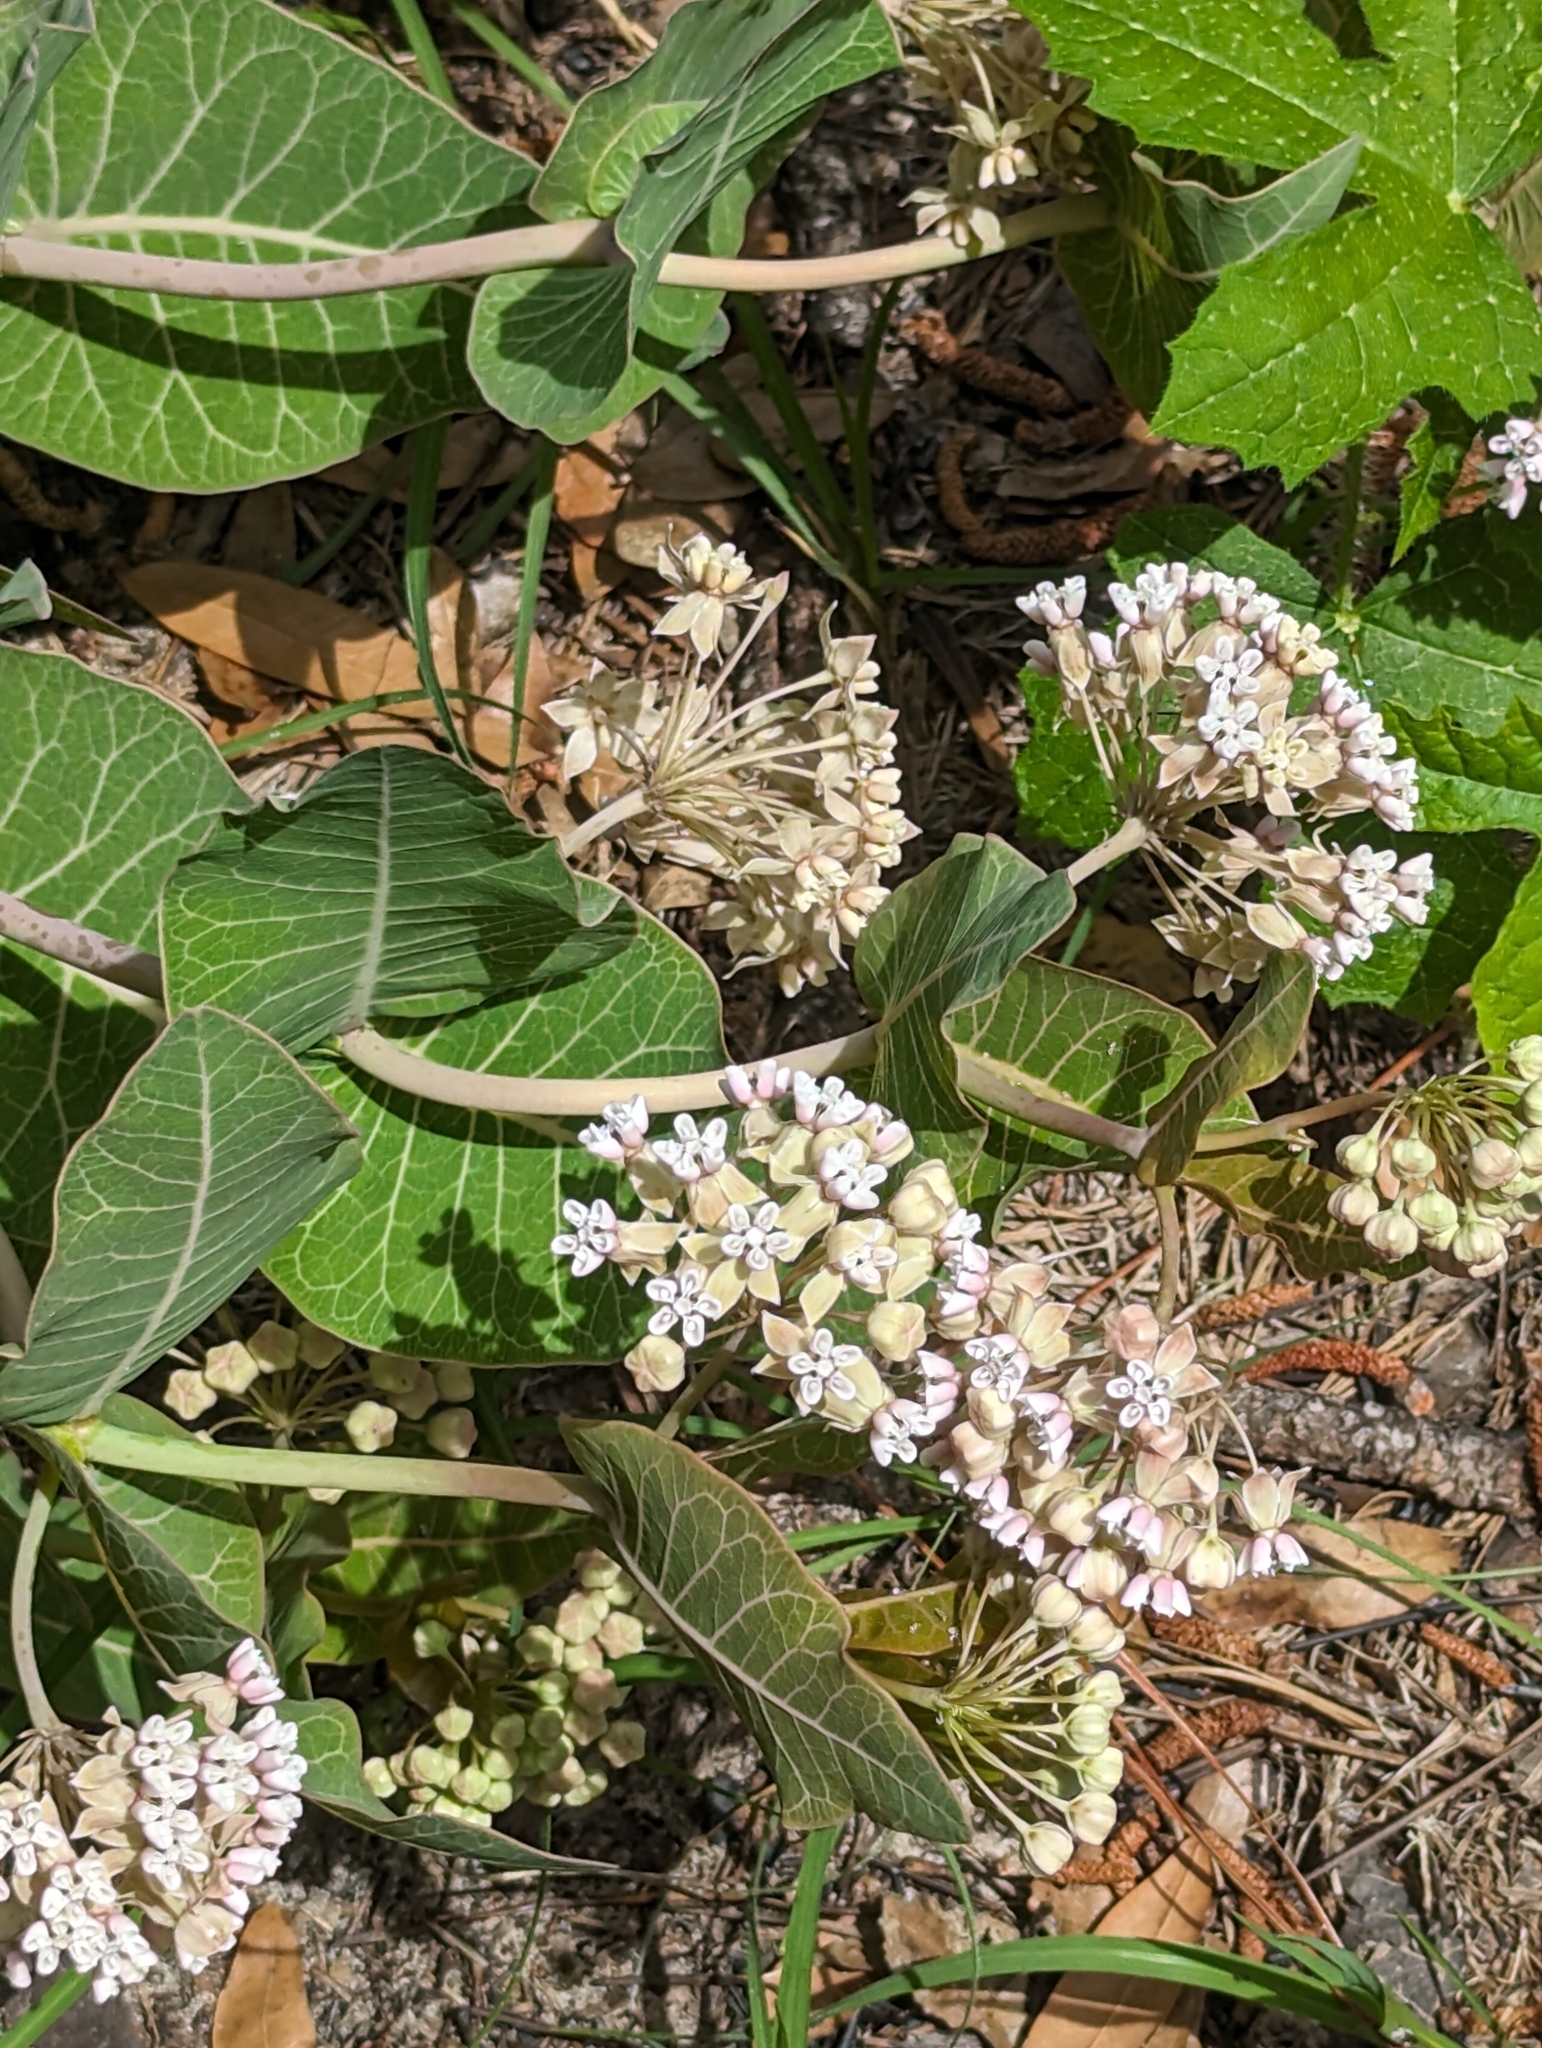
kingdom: Plantae
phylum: Tracheophyta
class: Magnoliopsida
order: Gentianales
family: Apocynaceae
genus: Asclepias
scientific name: Asclepias humistrata
